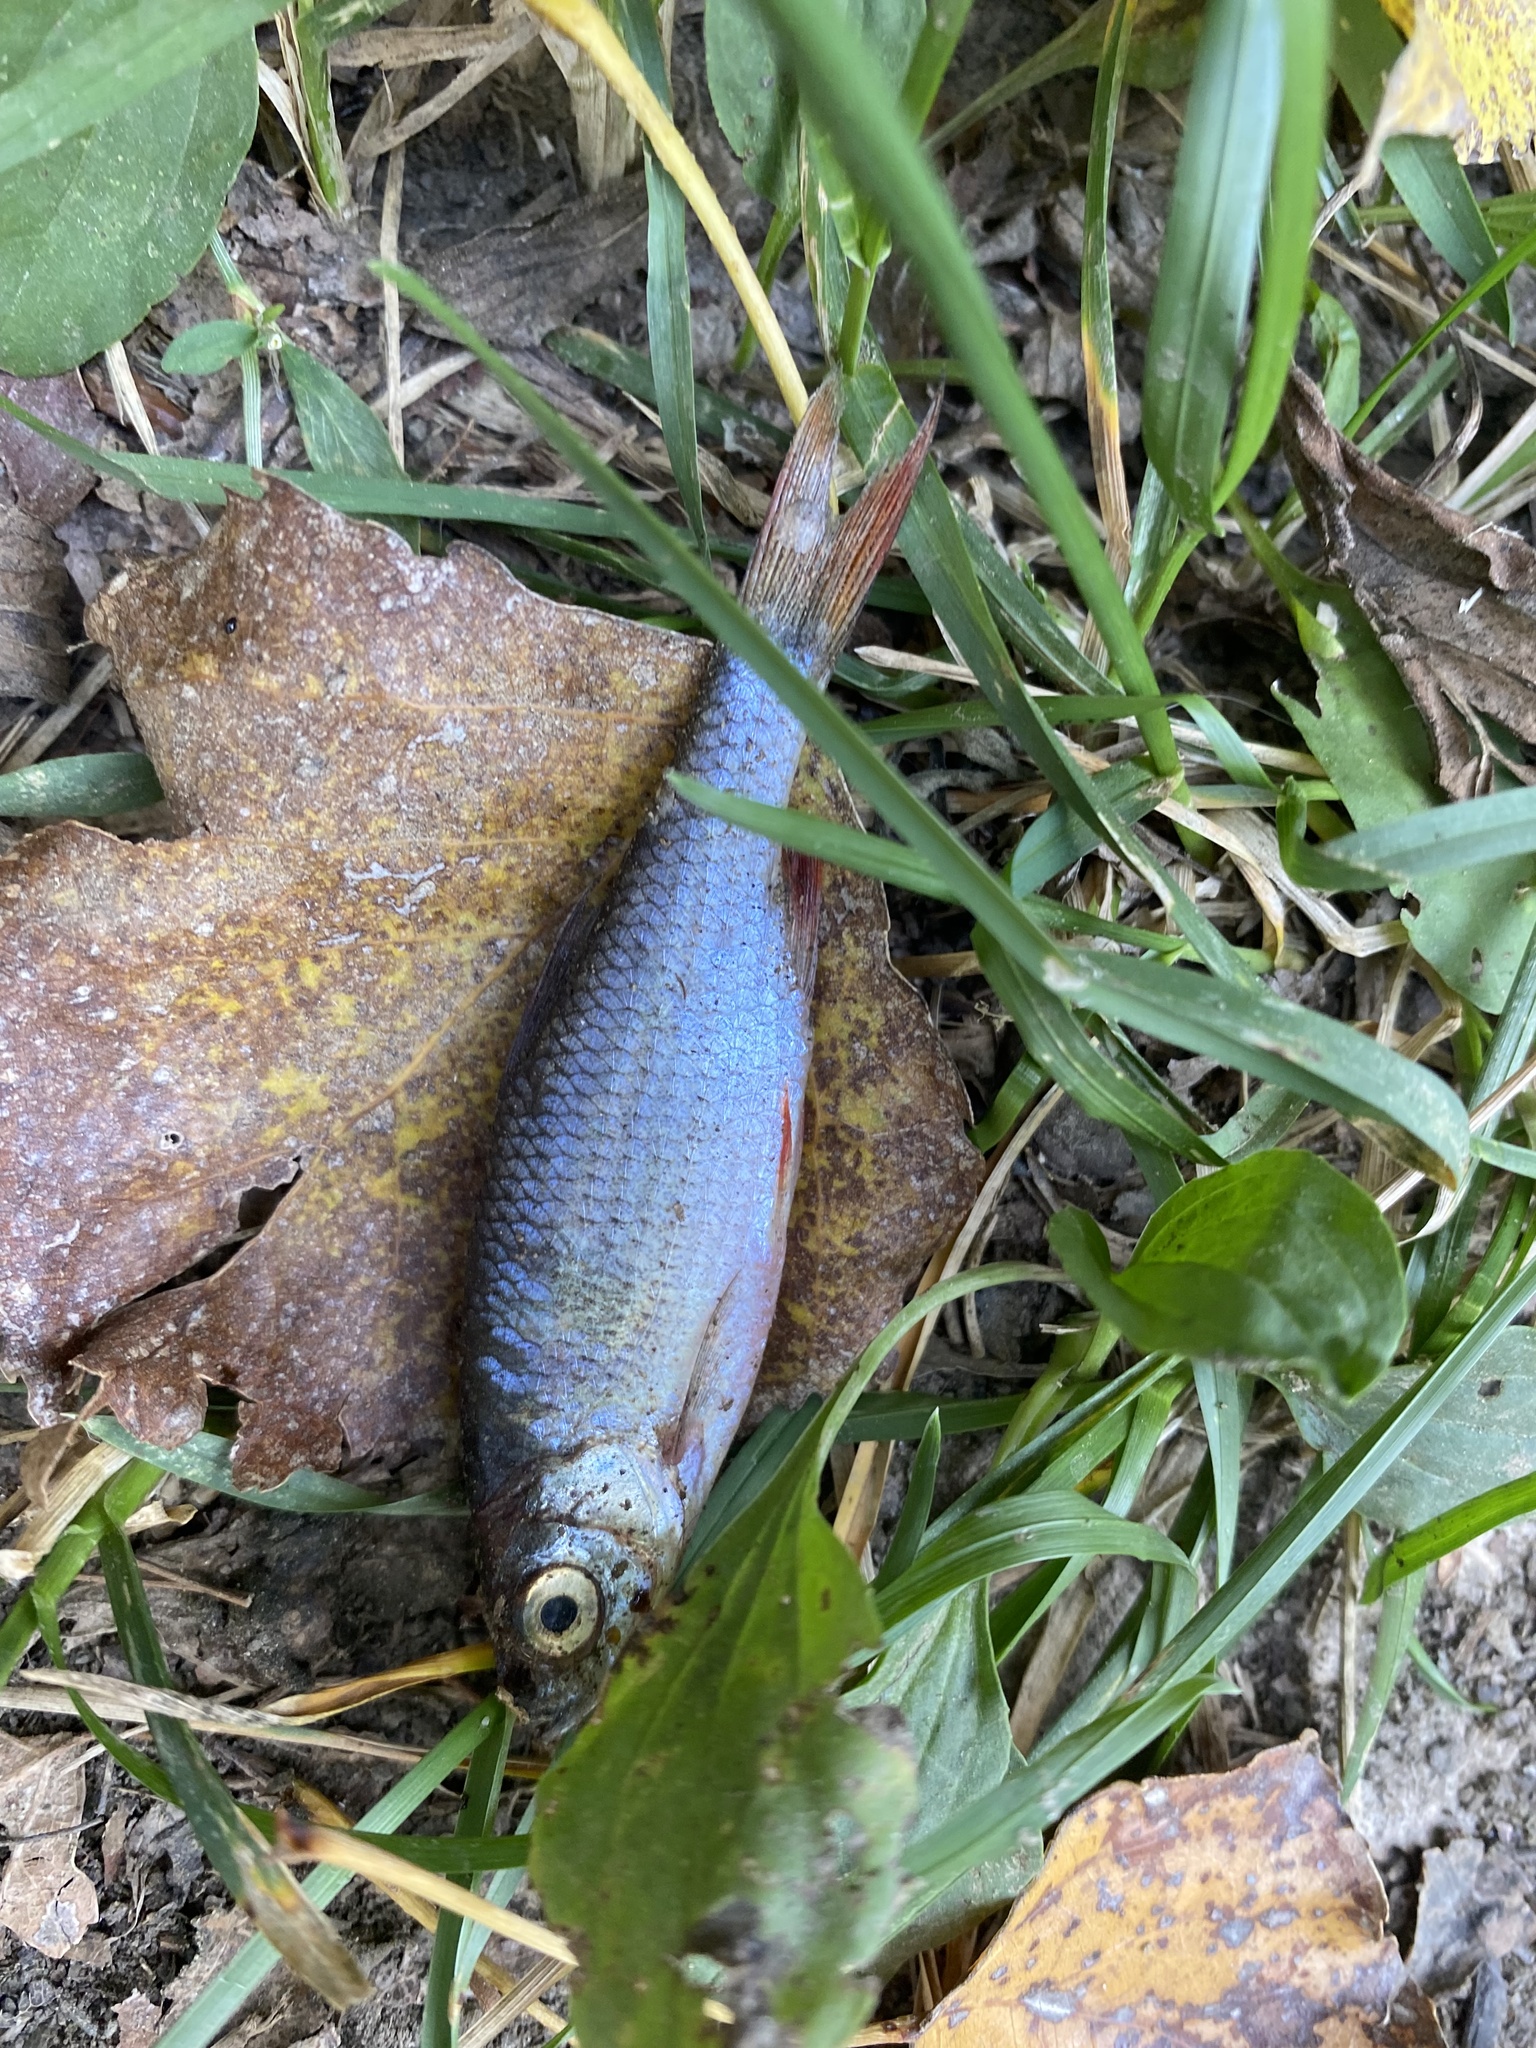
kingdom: Animalia
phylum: Chordata
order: Cypriniformes
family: Cyprinidae
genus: Scardinius
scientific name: Scardinius erythrophthalmus
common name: Rudd
